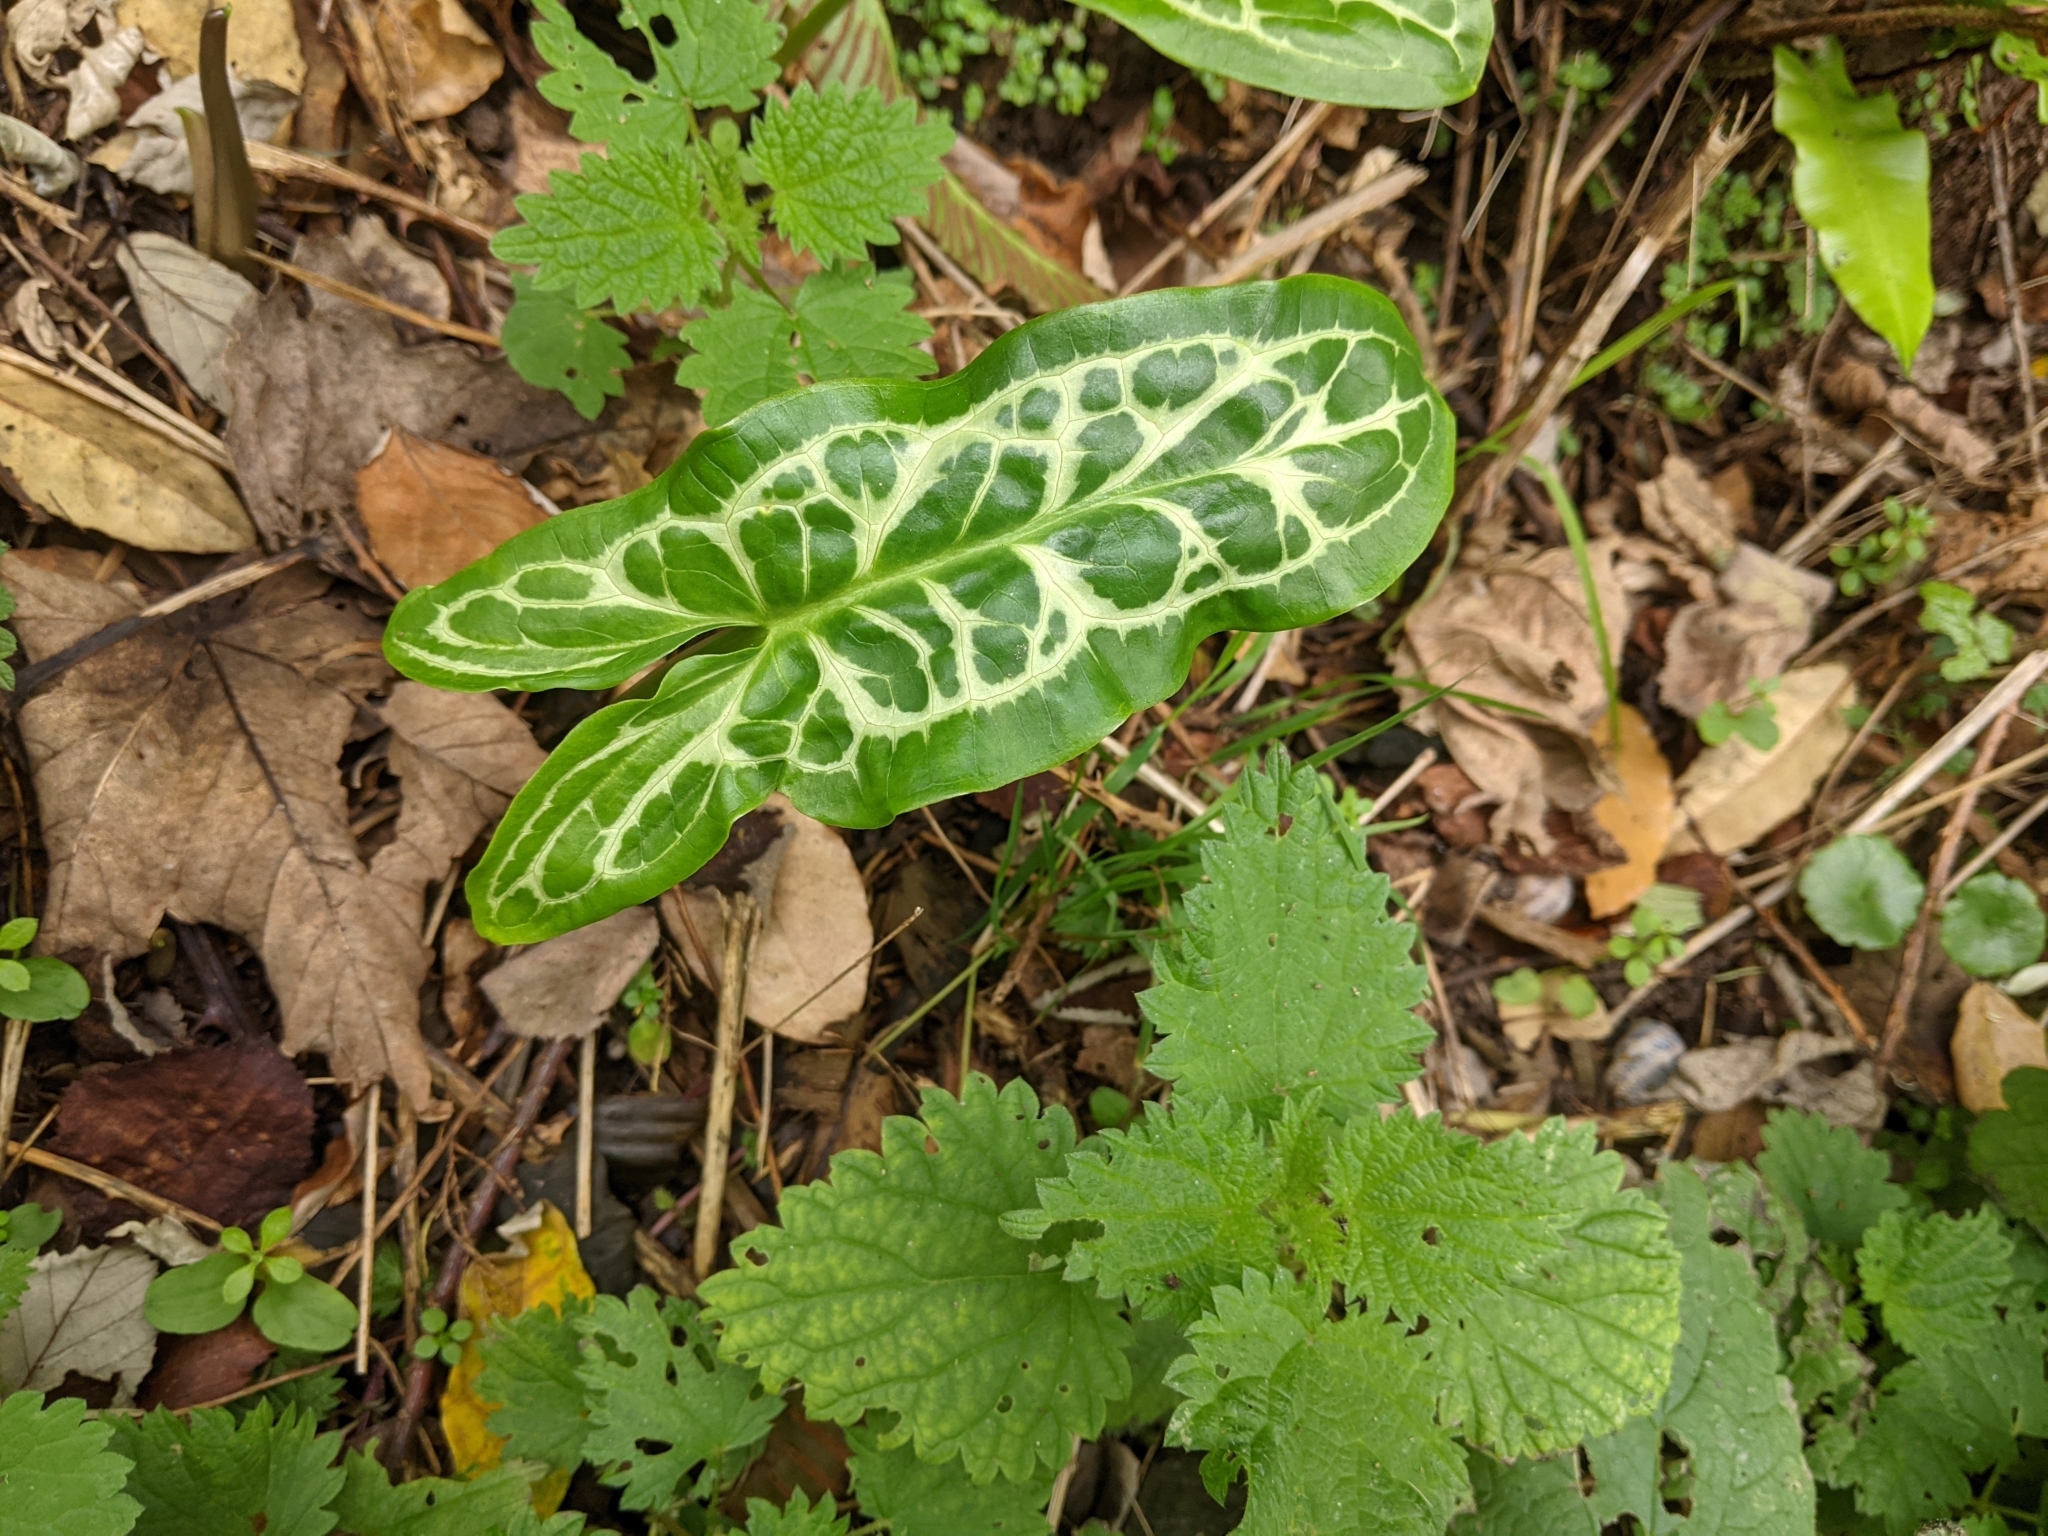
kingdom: Plantae
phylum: Tracheophyta
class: Liliopsida
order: Alismatales
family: Araceae
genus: Arum
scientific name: Arum italicum
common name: Italian lords-and-ladies
